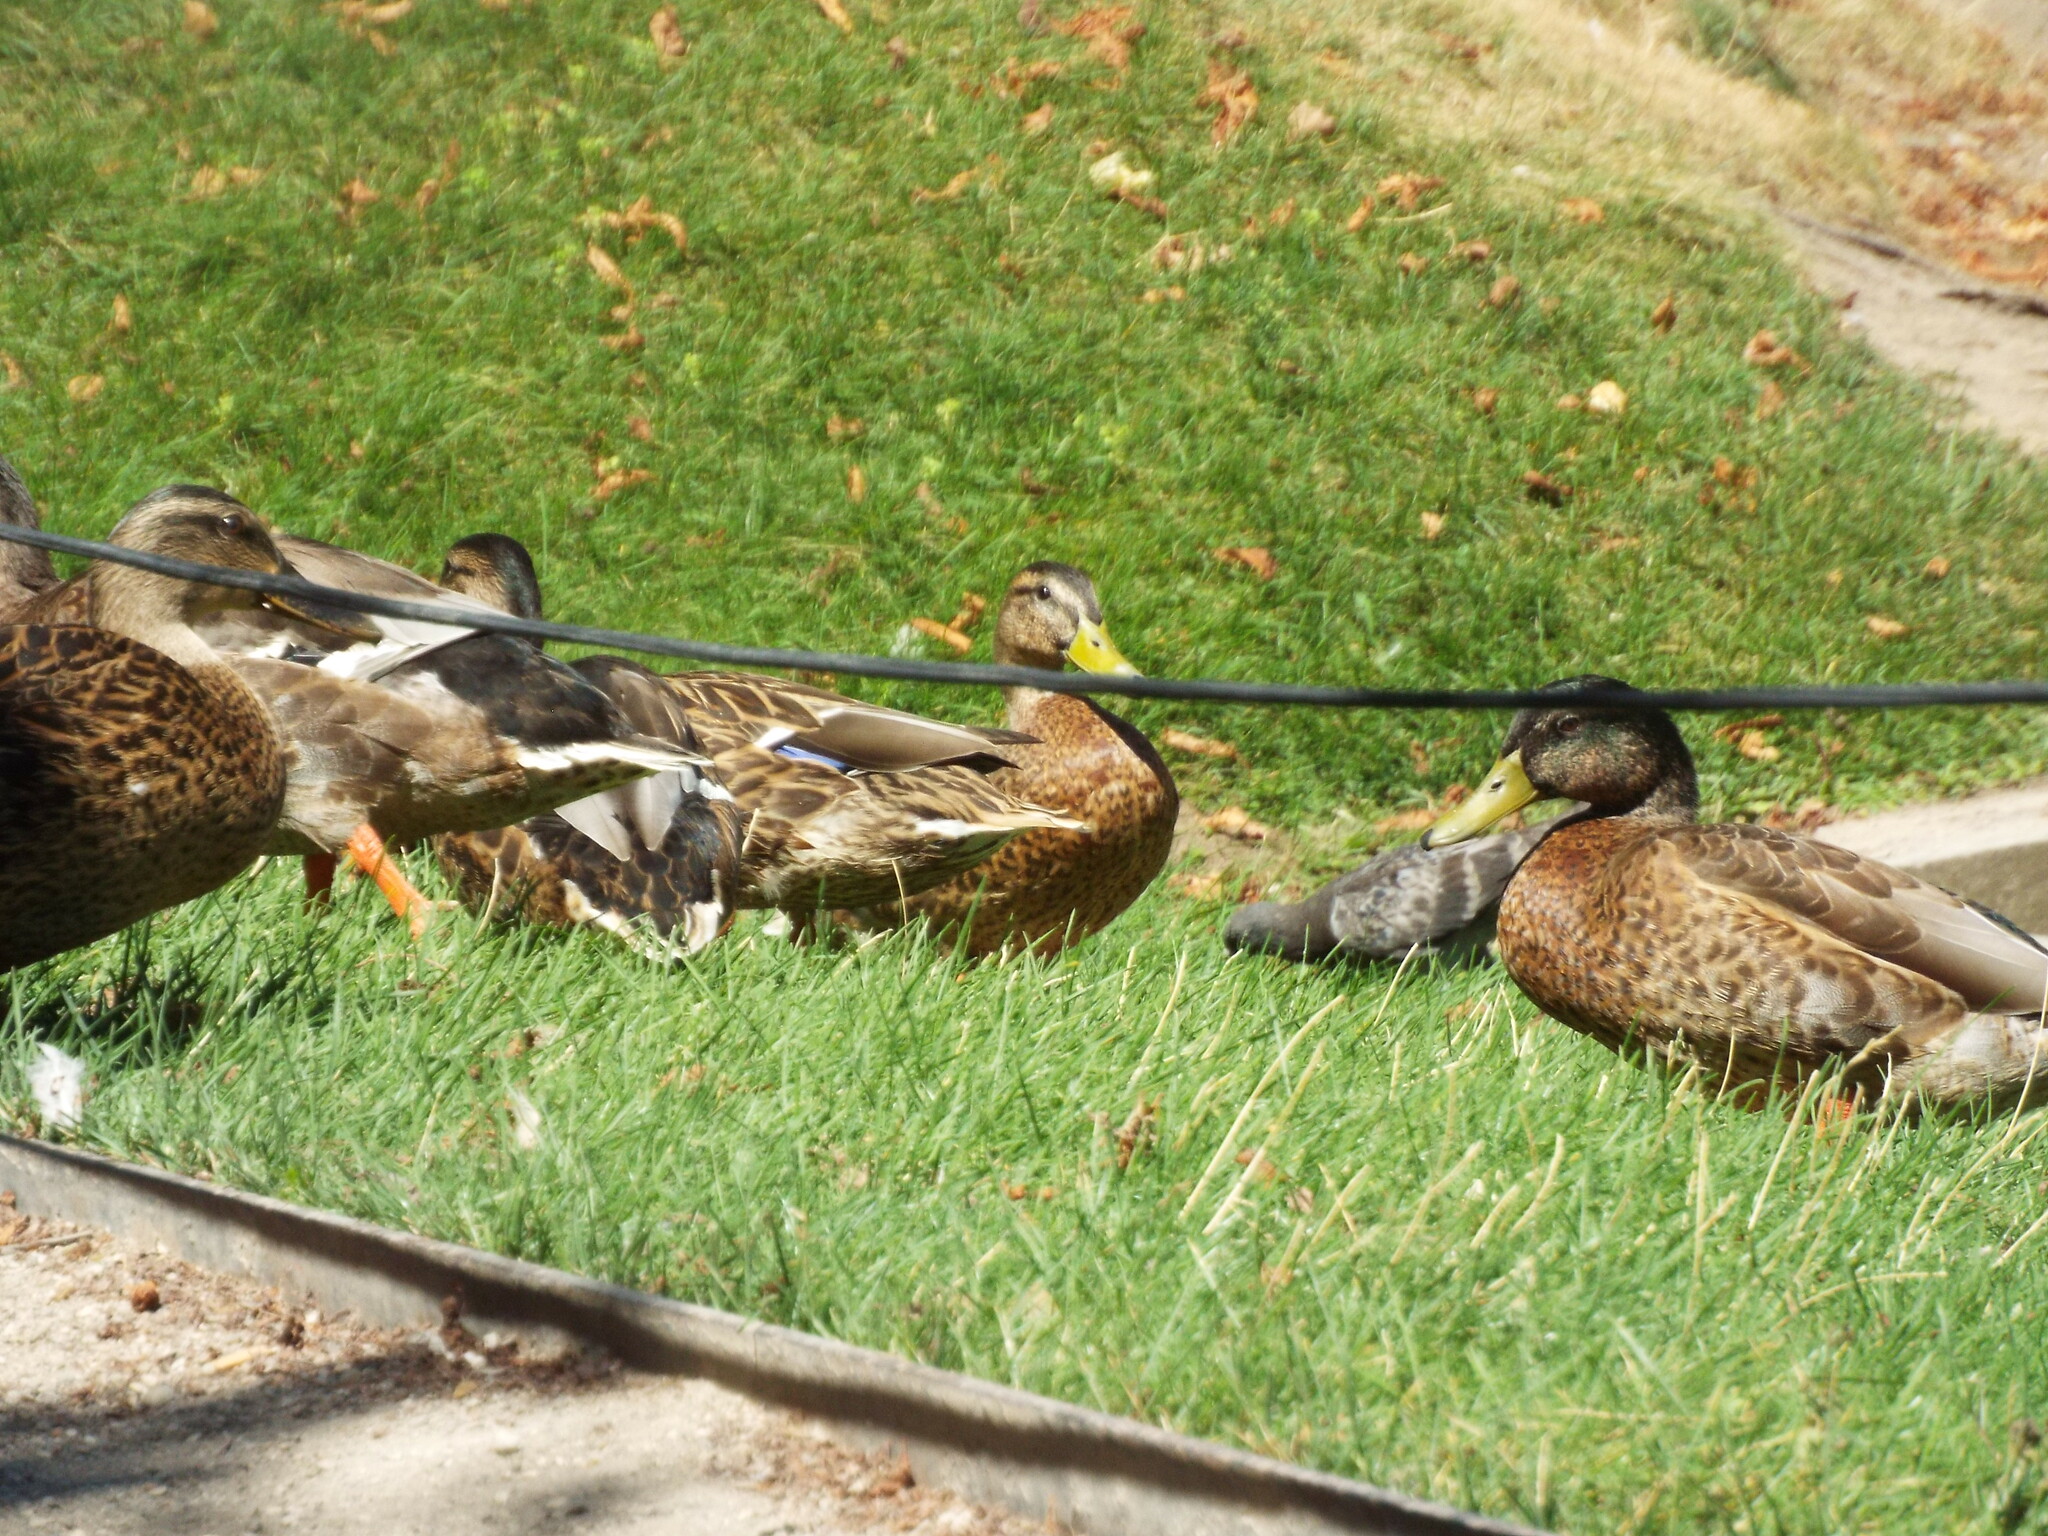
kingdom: Animalia
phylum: Chordata
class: Aves
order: Anseriformes
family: Anatidae
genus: Anas
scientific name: Anas platyrhynchos
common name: Mallard
